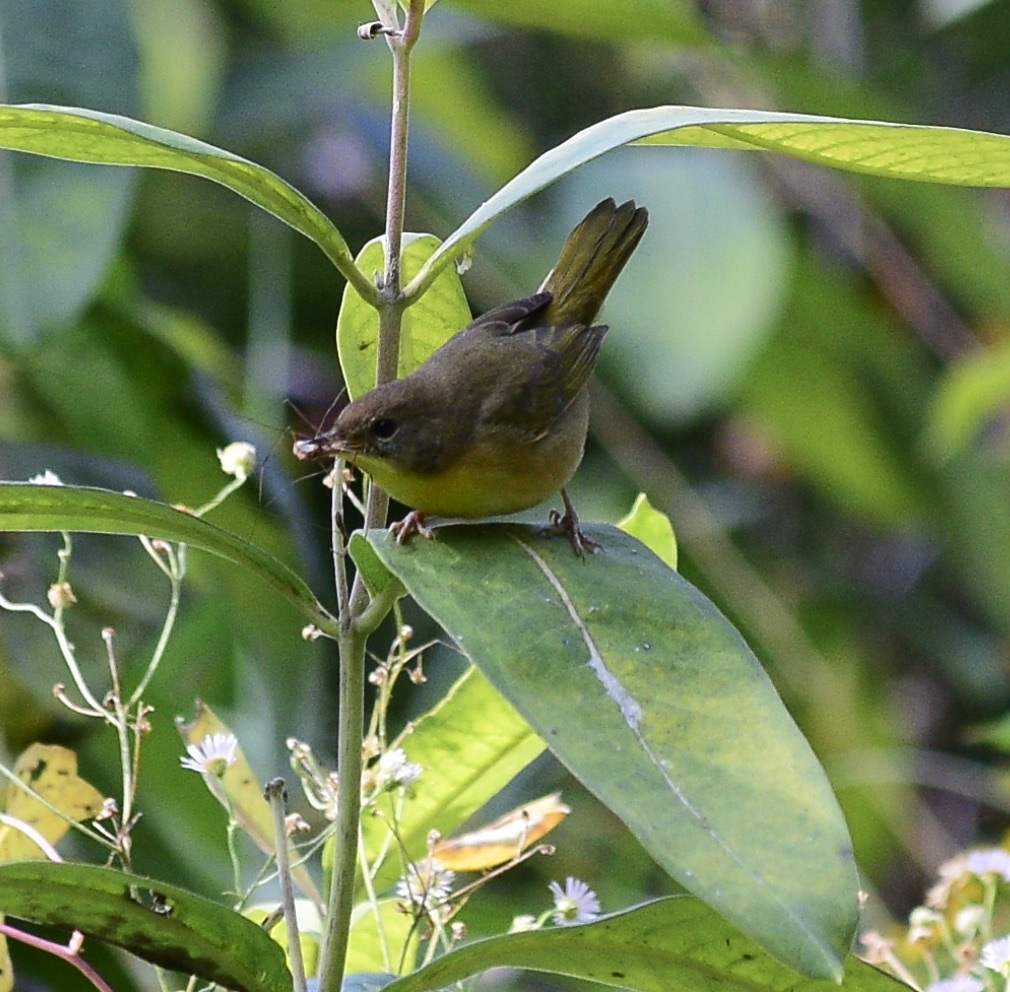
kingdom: Animalia
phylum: Chordata
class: Aves
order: Passeriformes
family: Parulidae
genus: Geothlypis
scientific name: Geothlypis trichas
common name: Common yellowthroat
